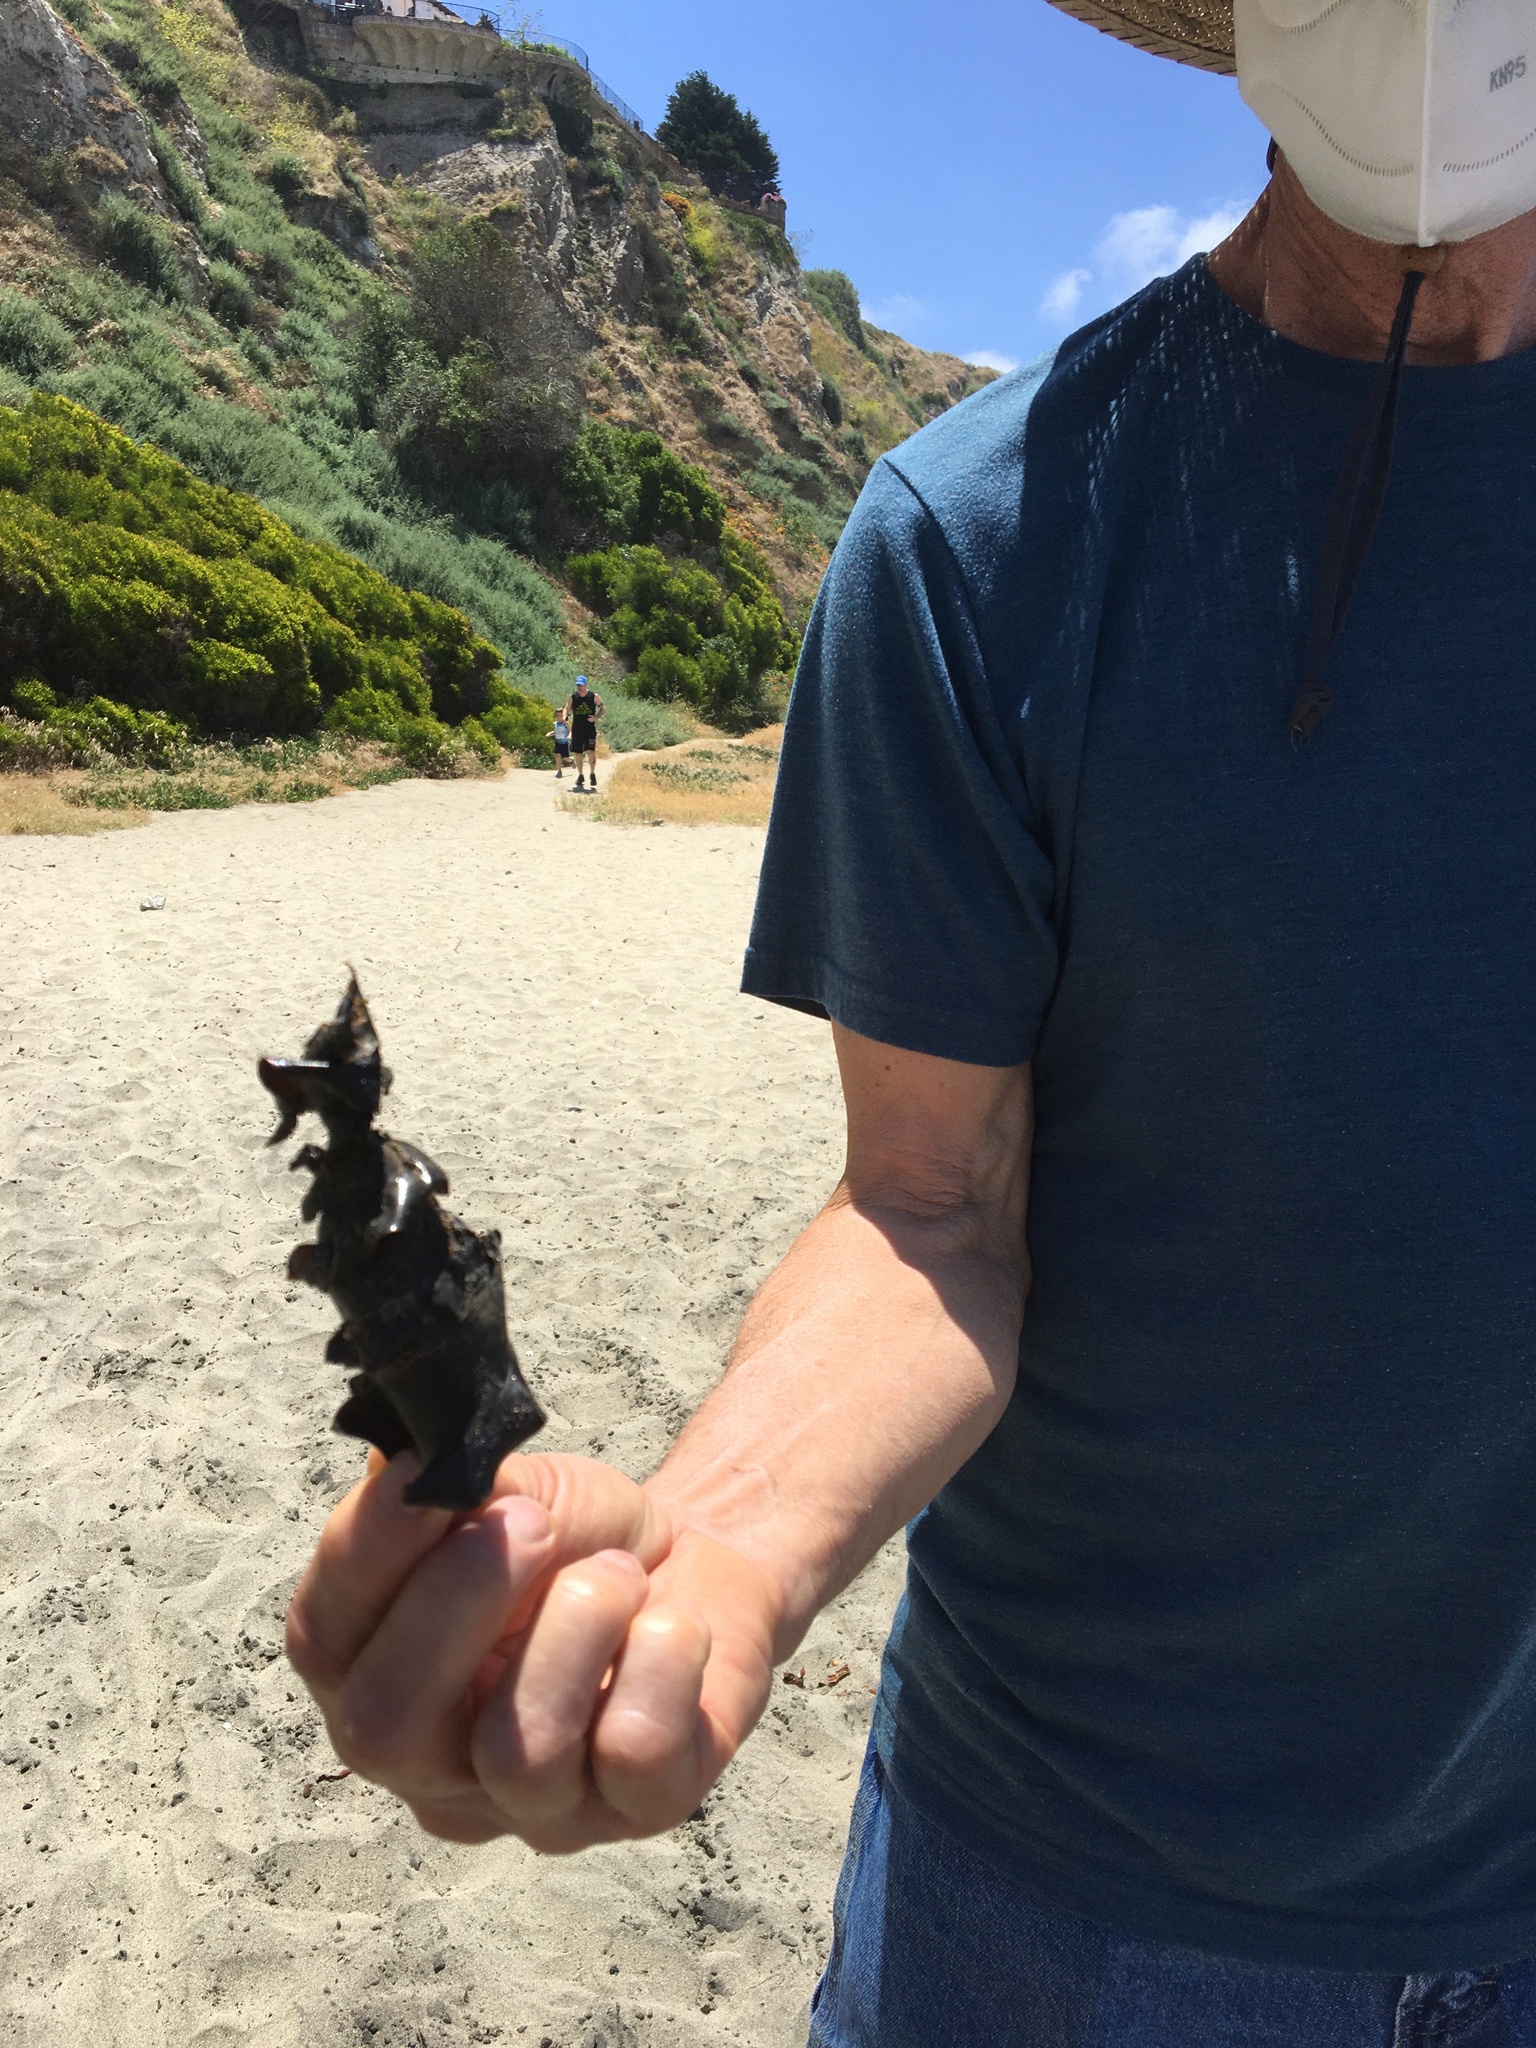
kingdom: Animalia
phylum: Chordata
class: Elasmobranchii
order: Heterodontiformes
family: Heterodontidae
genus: Heterodontus
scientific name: Heterodontus francisci
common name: Horn shark
